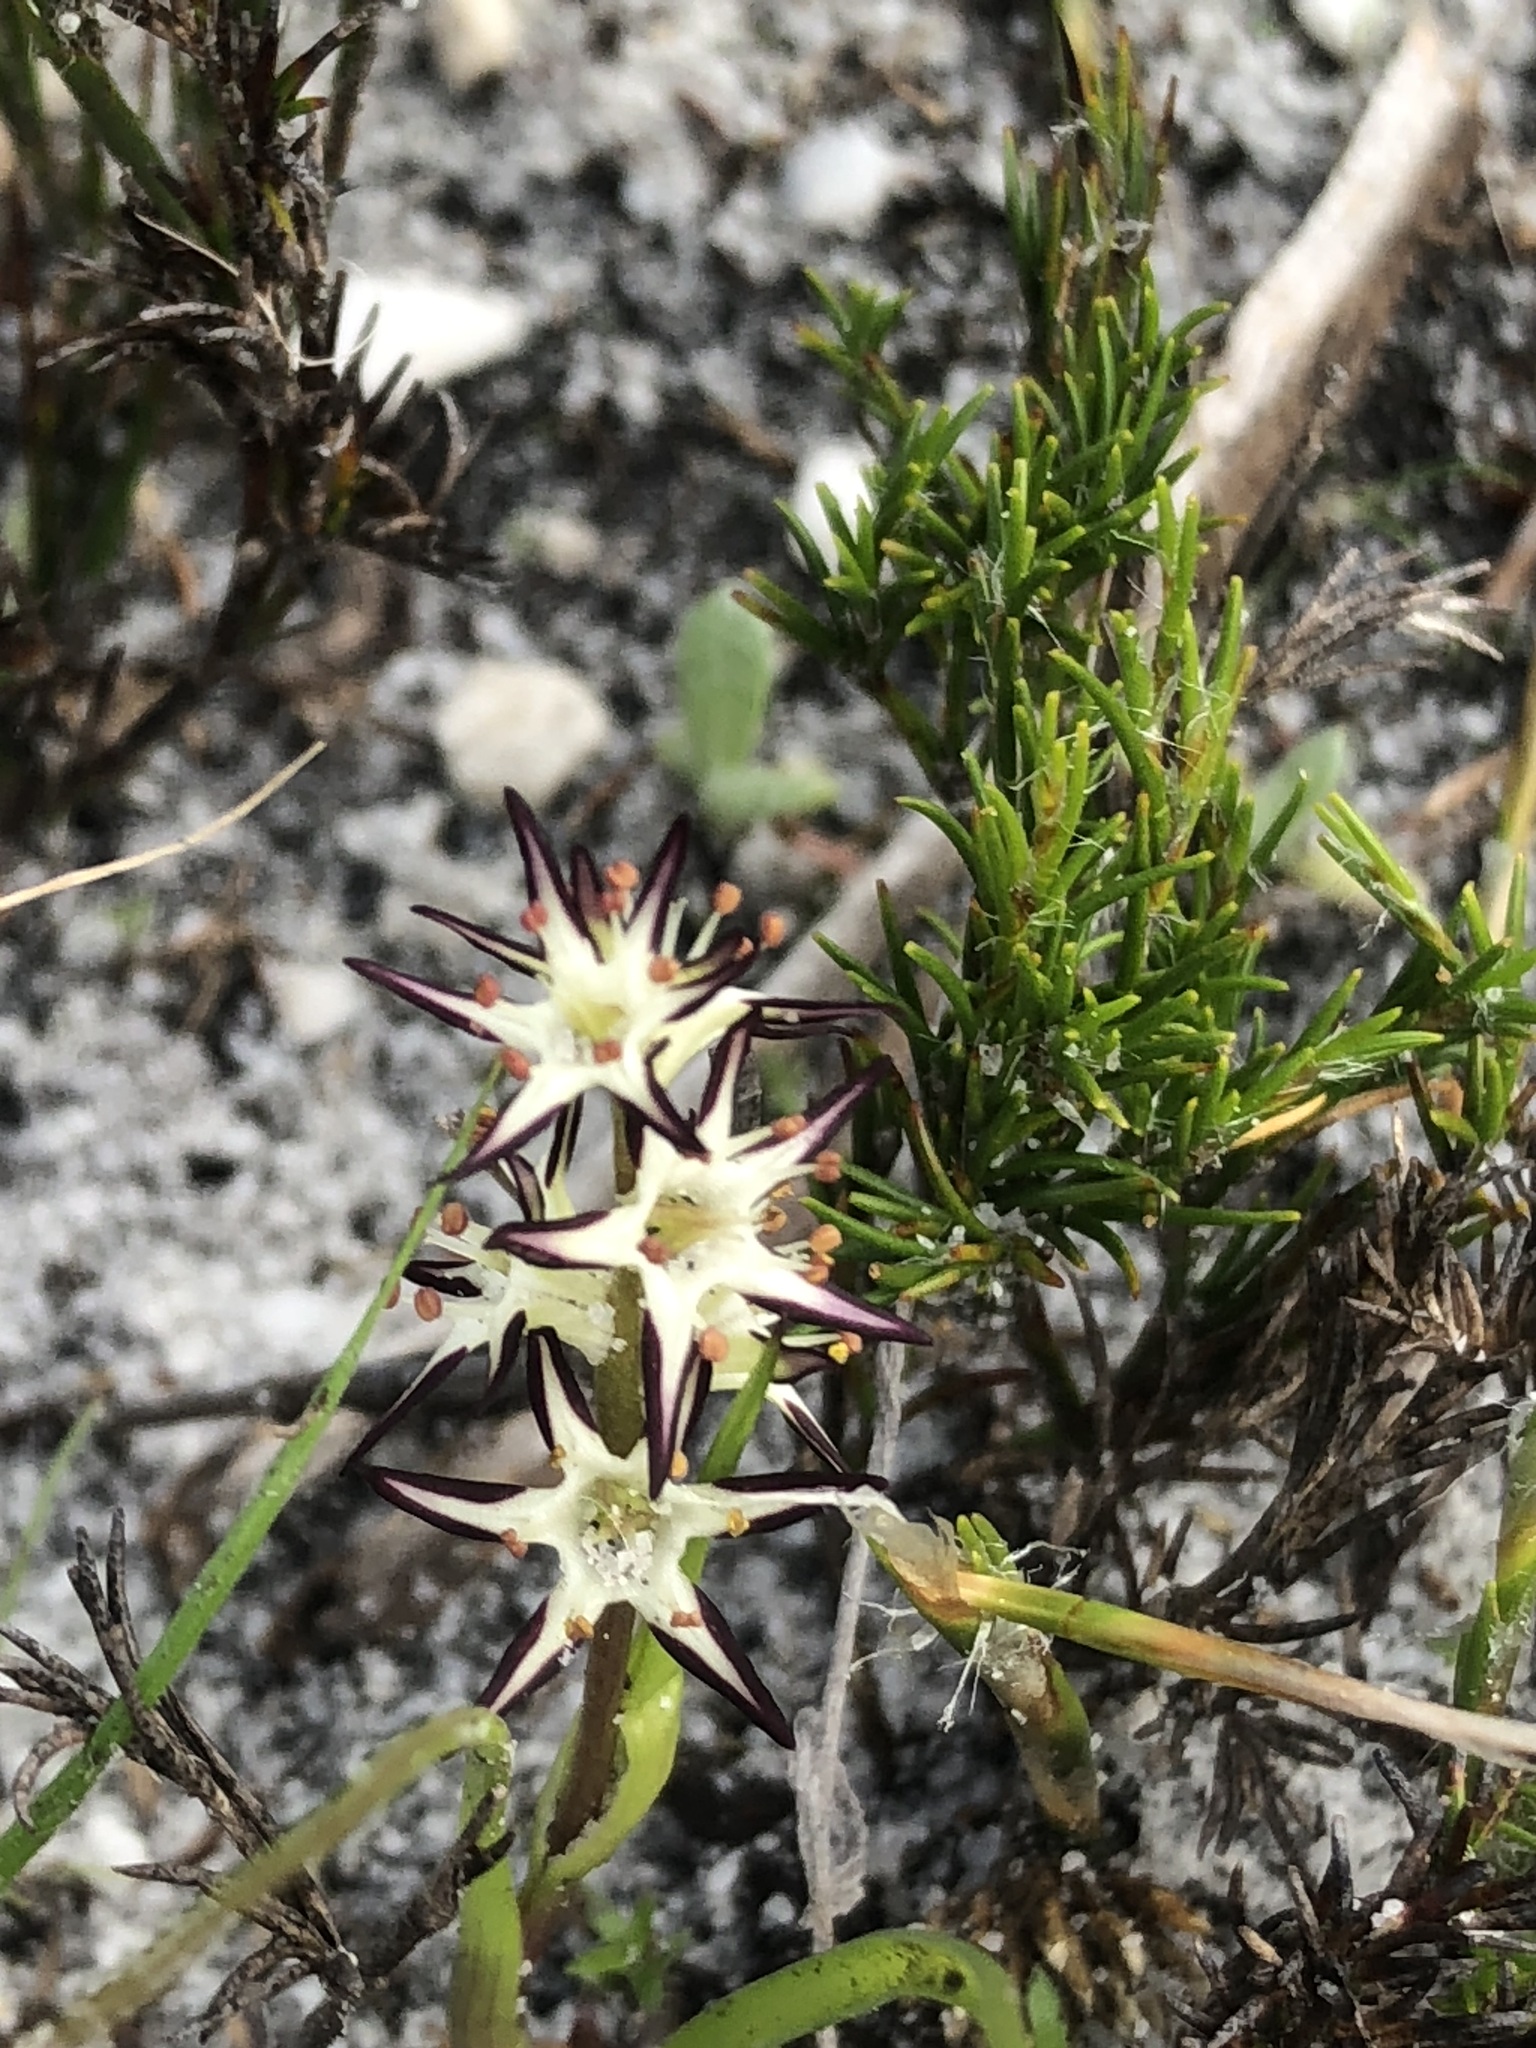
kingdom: Plantae
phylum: Tracheophyta
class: Liliopsida
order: Liliales
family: Colchicaceae
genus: Wurmbea
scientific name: Wurmbea hiemalis
